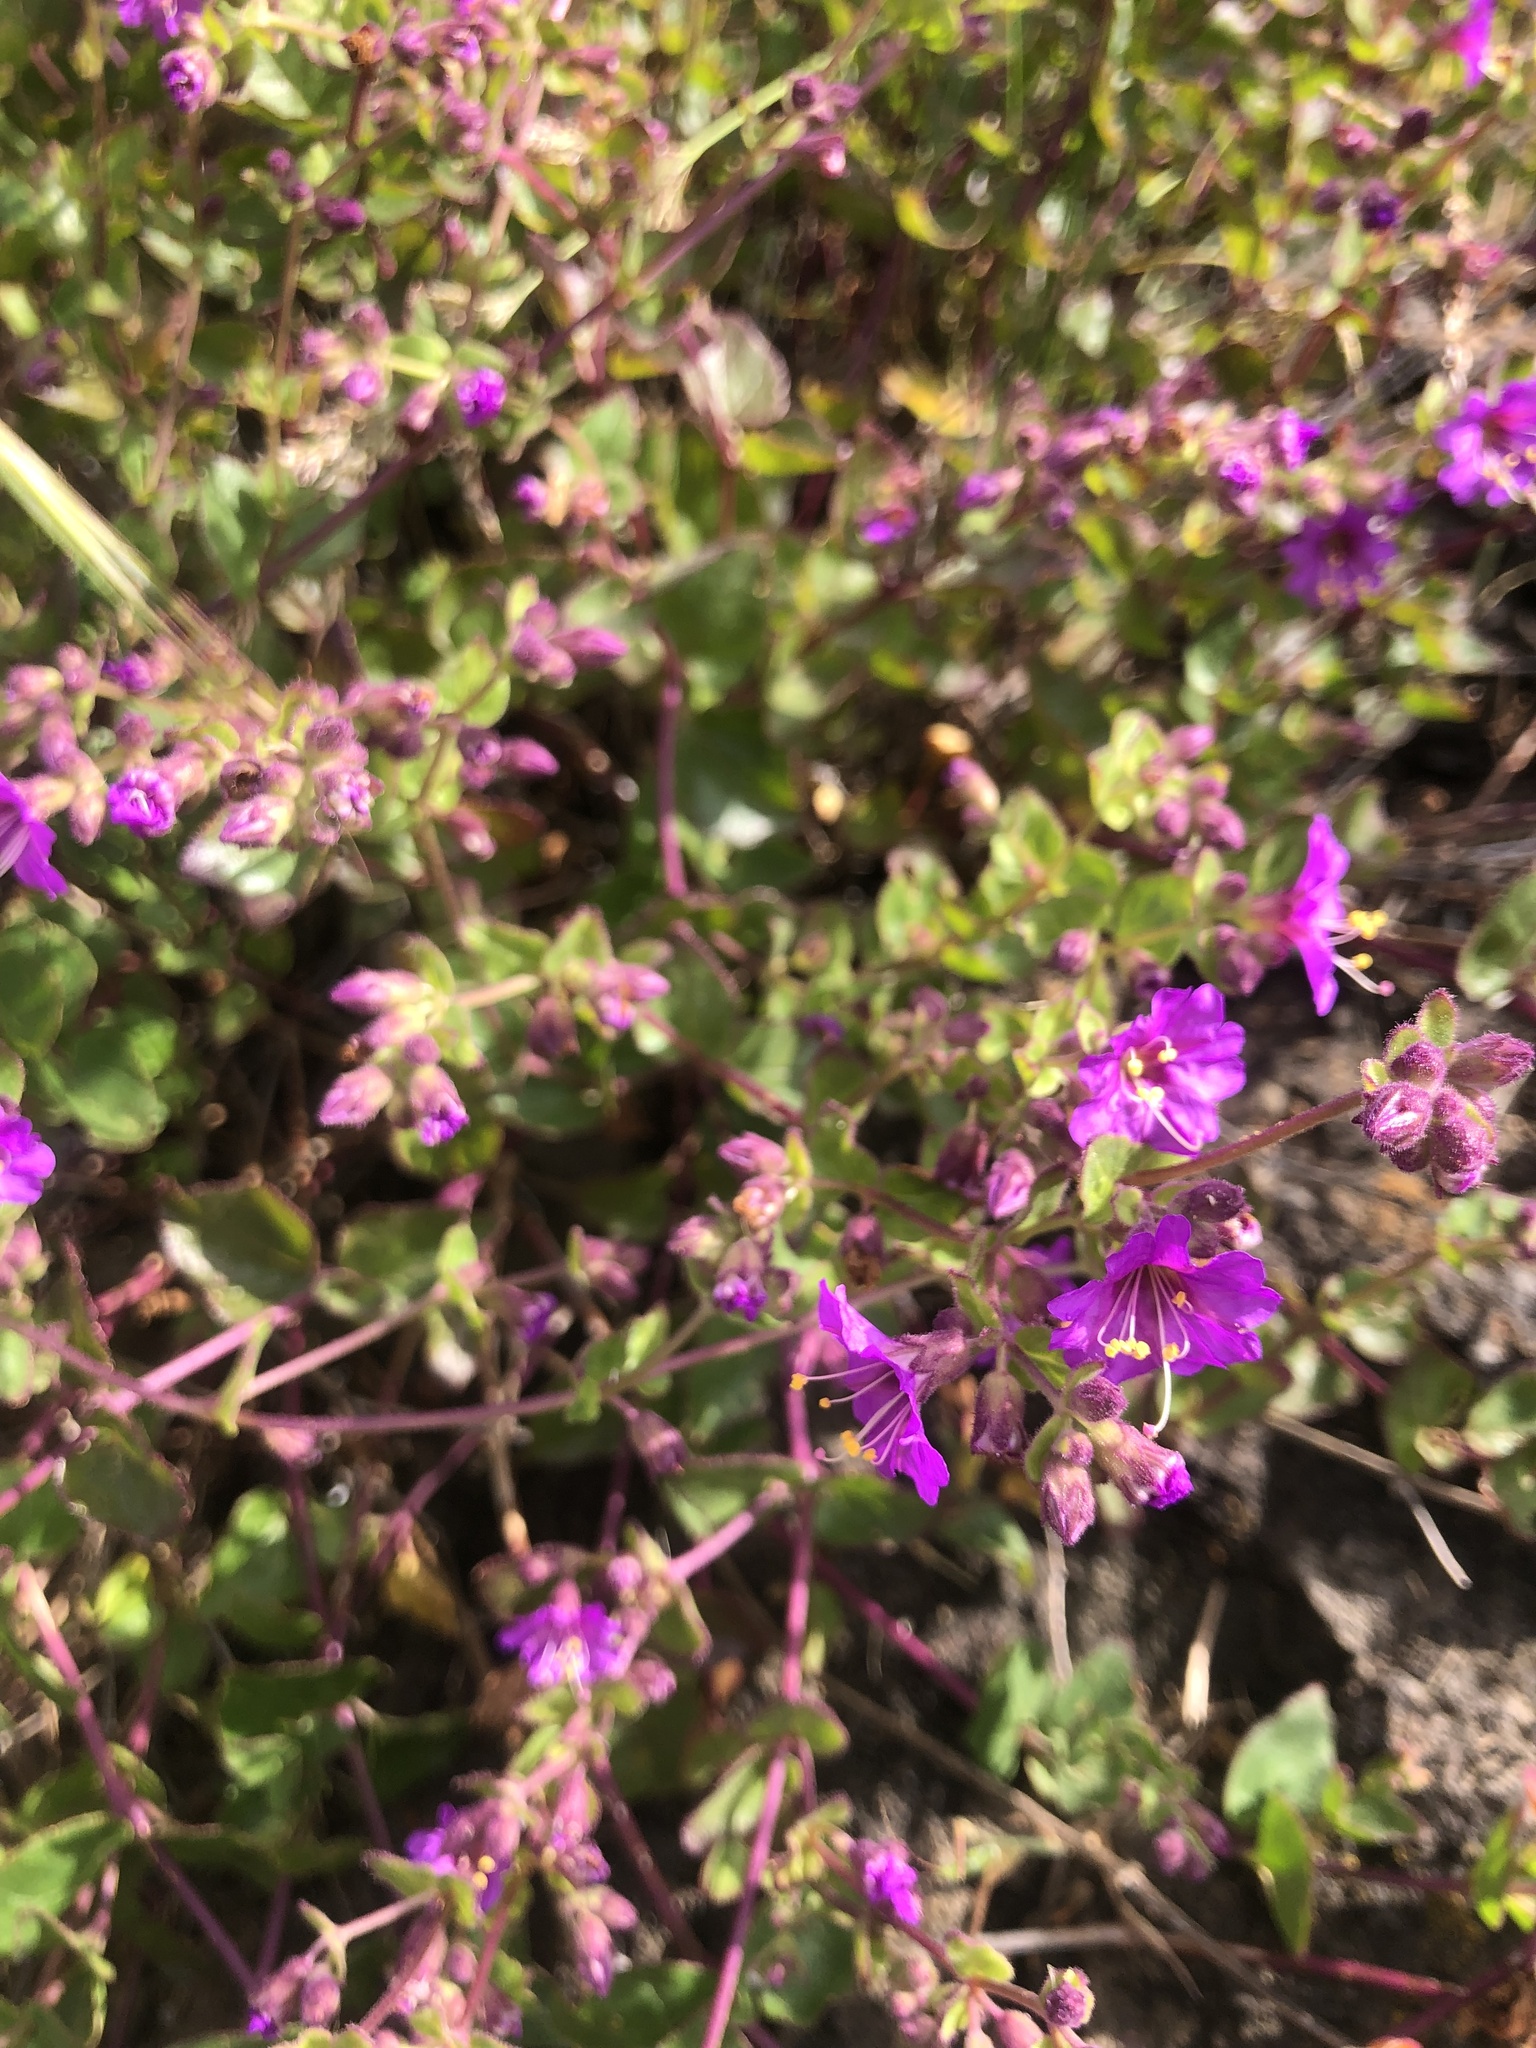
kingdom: Plantae
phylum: Tracheophyta
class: Magnoliopsida
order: Caryophyllales
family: Nyctaginaceae
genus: Mirabilis
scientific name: Mirabilis laevis
